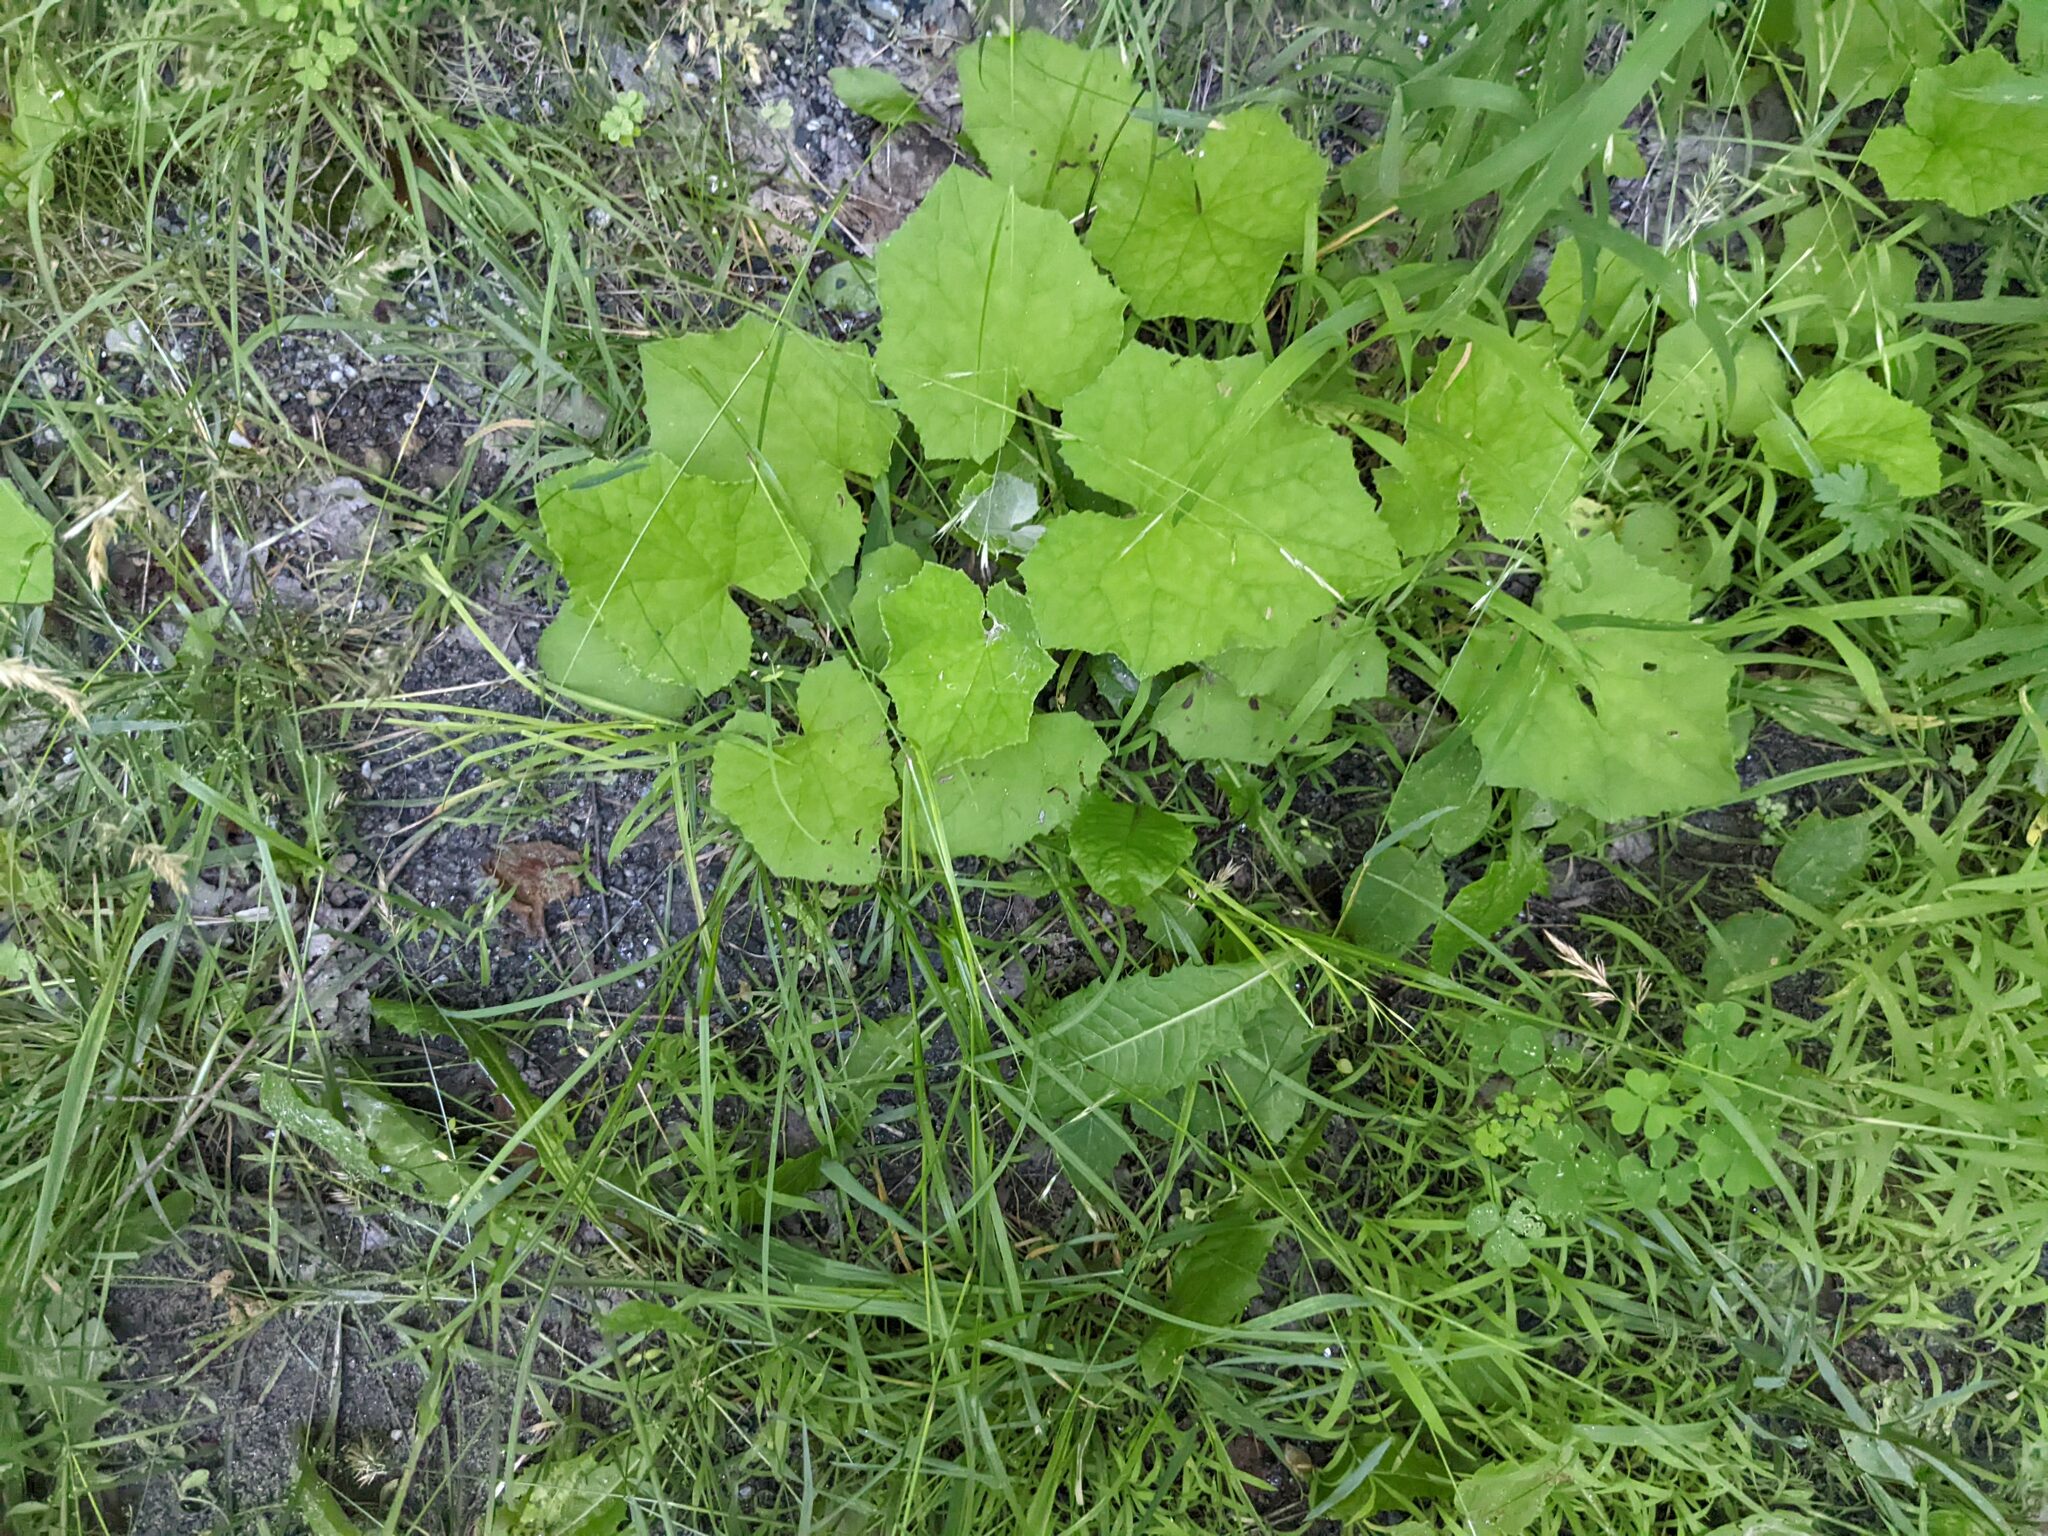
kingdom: Plantae
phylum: Tracheophyta
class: Magnoliopsida
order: Asterales
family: Asteraceae
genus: Tussilago
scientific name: Tussilago farfara
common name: Coltsfoot
